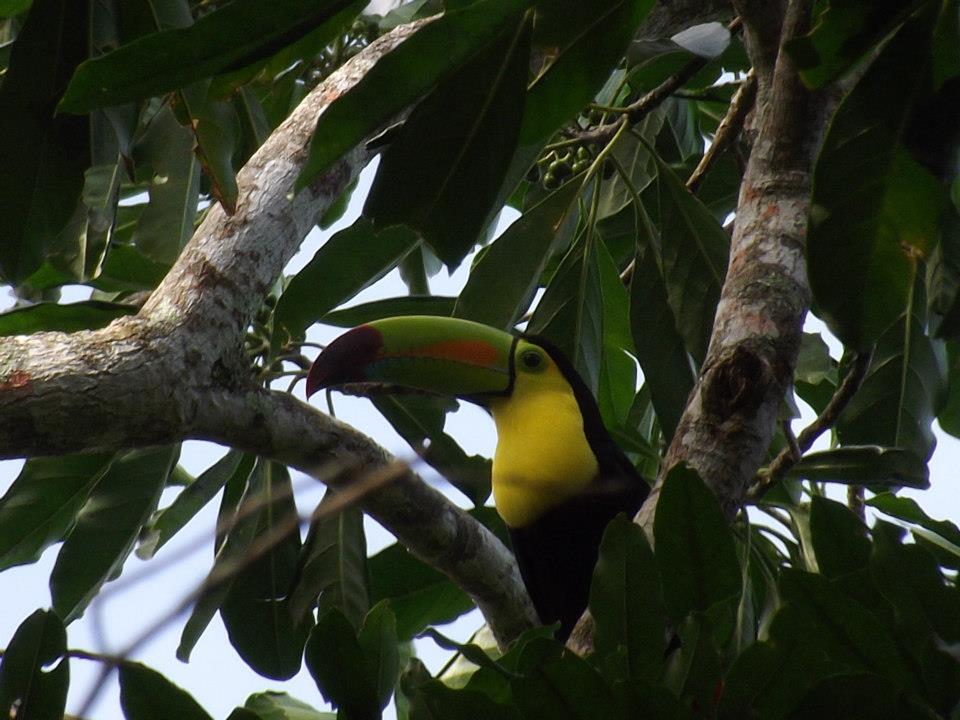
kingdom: Animalia
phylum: Chordata
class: Aves
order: Piciformes
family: Ramphastidae
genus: Ramphastos
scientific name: Ramphastos sulfuratus
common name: Keel-billed toucan
